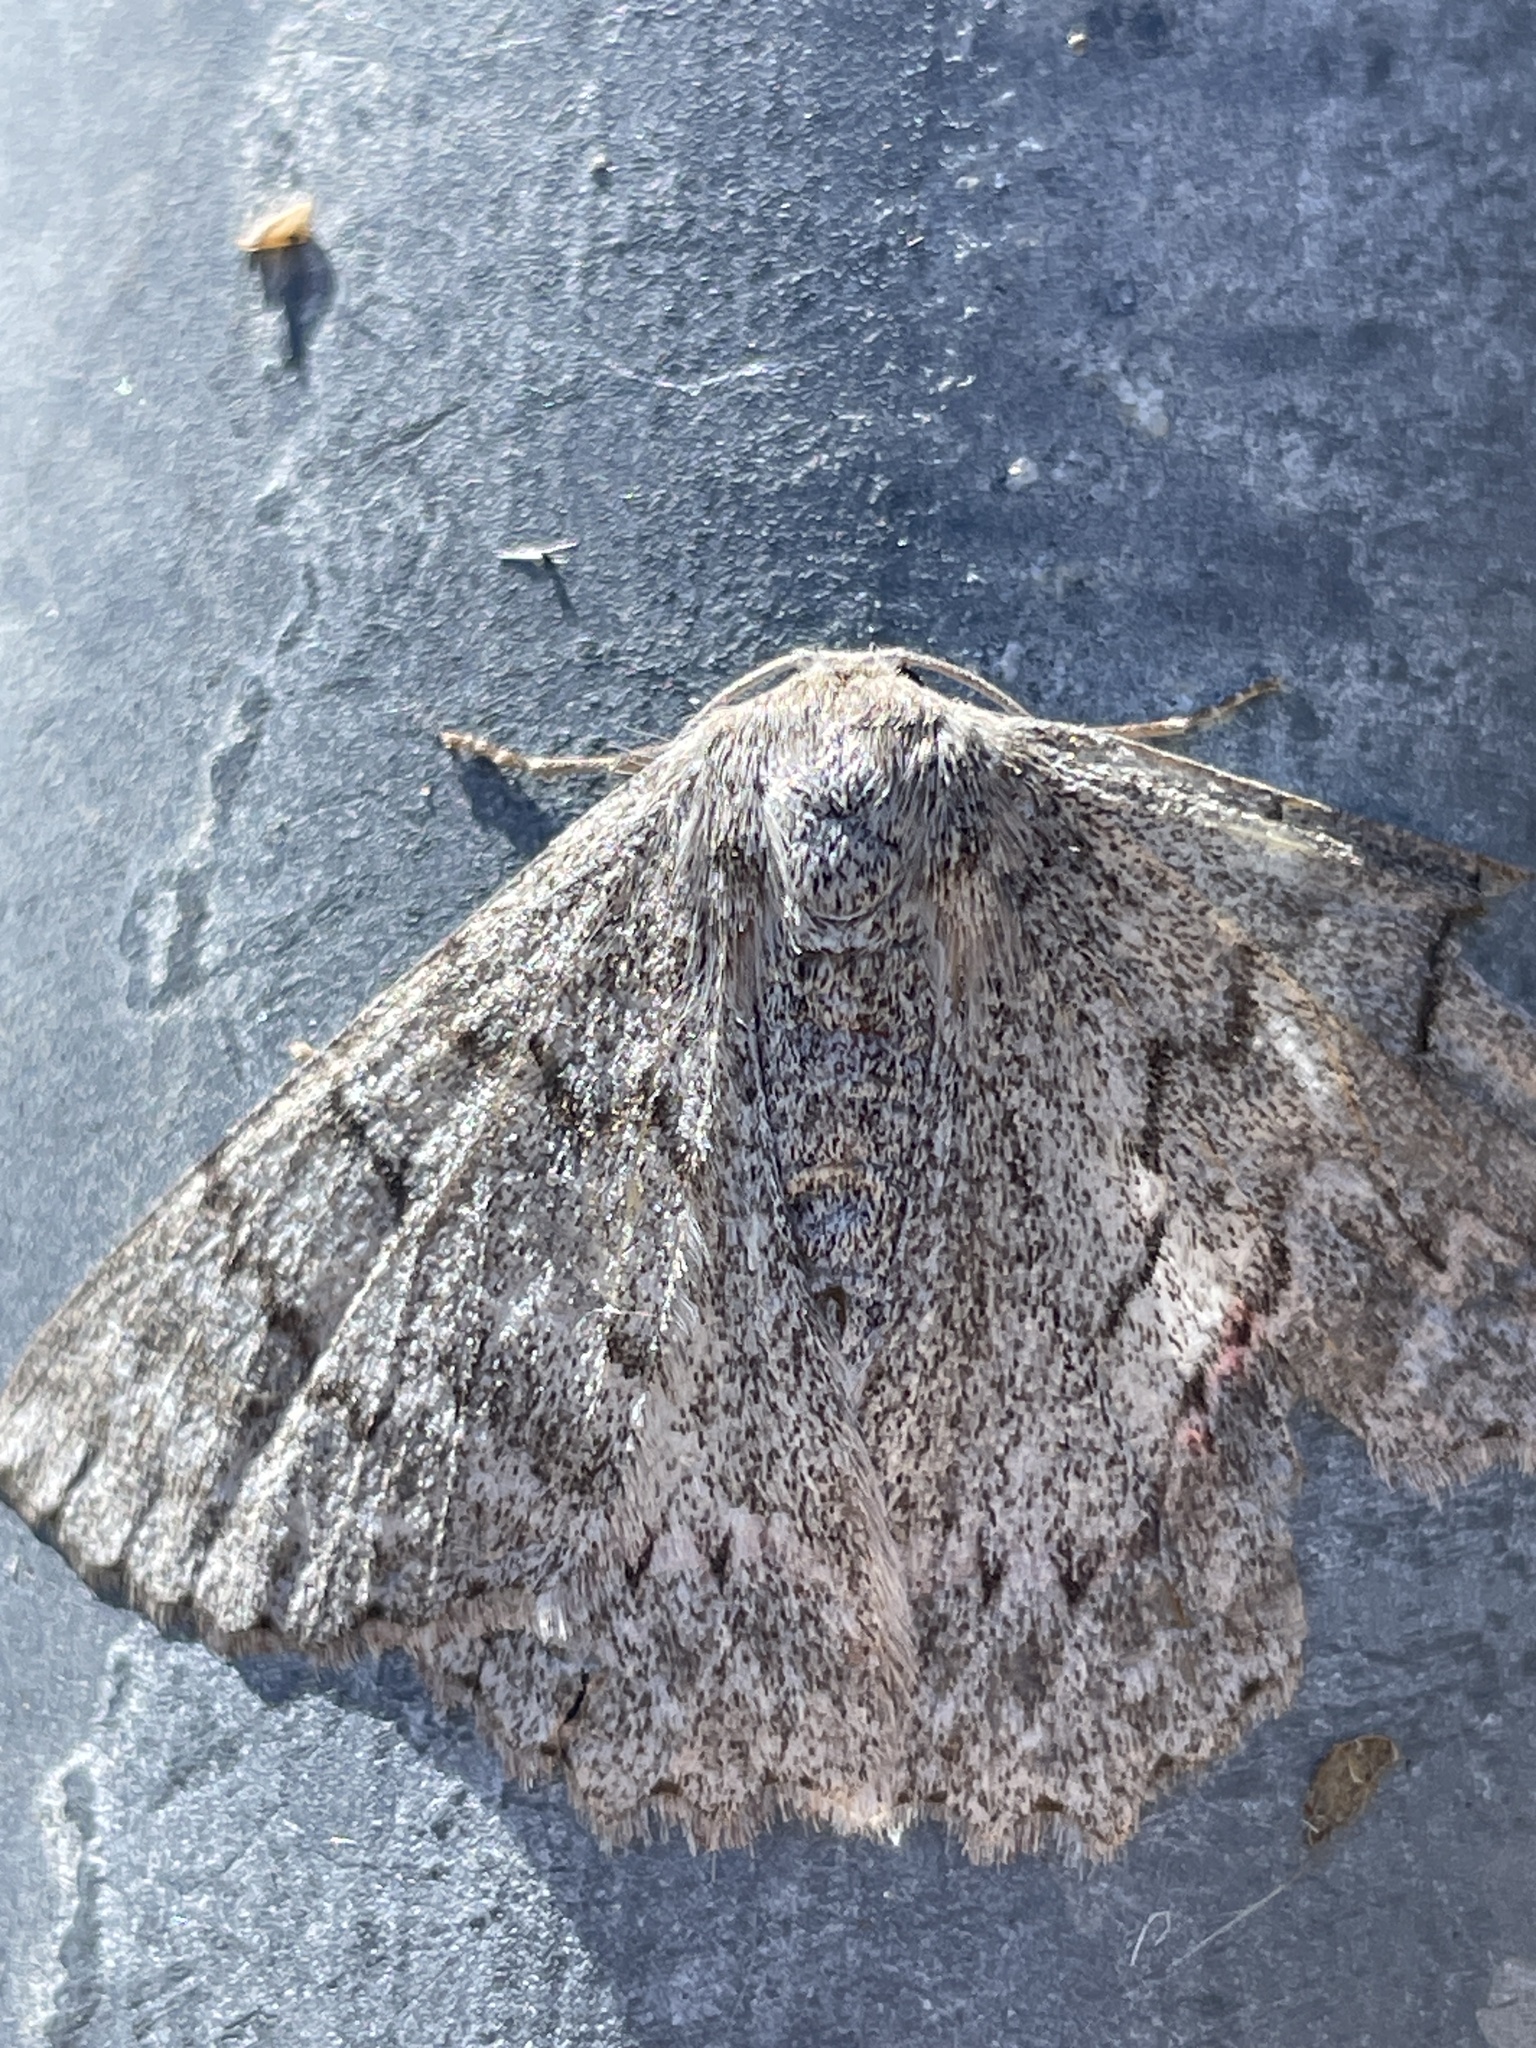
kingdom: Animalia
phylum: Arthropoda
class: Insecta
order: Lepidoptera
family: Geometridae
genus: Crypsiphona
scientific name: Crypsiphona ocultaria
